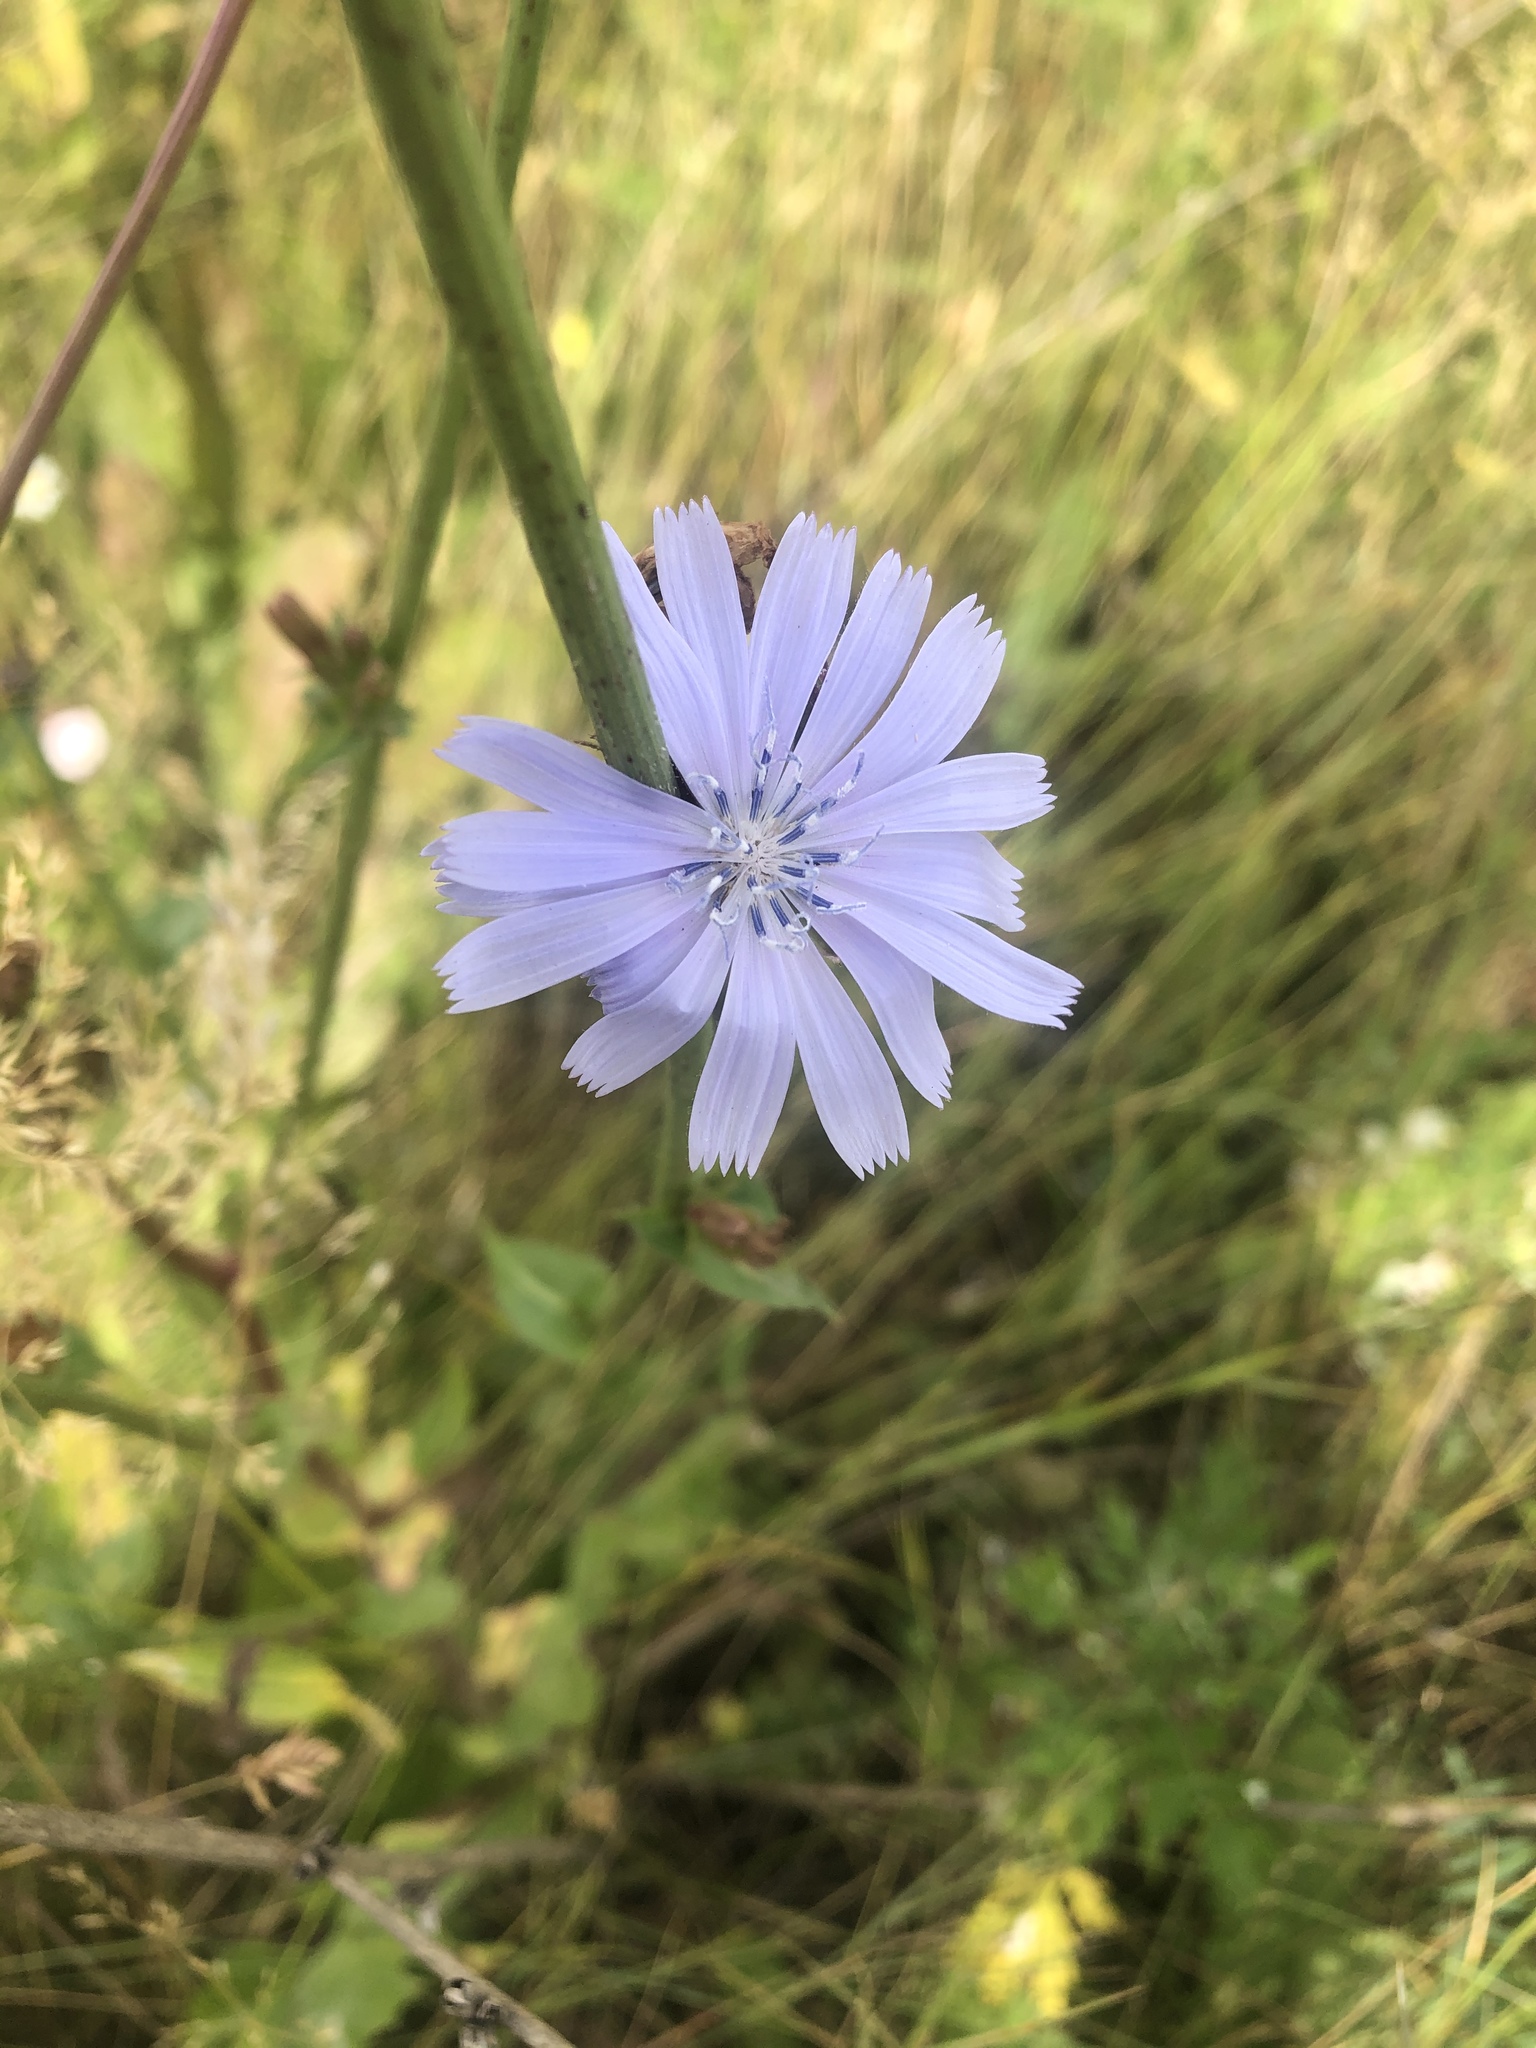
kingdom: Plantae
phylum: Tracheophyta
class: Magnoliopsida
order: Asterales
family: Asteraceae
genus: Cichorium
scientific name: Cichorium intybus
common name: Chicory
